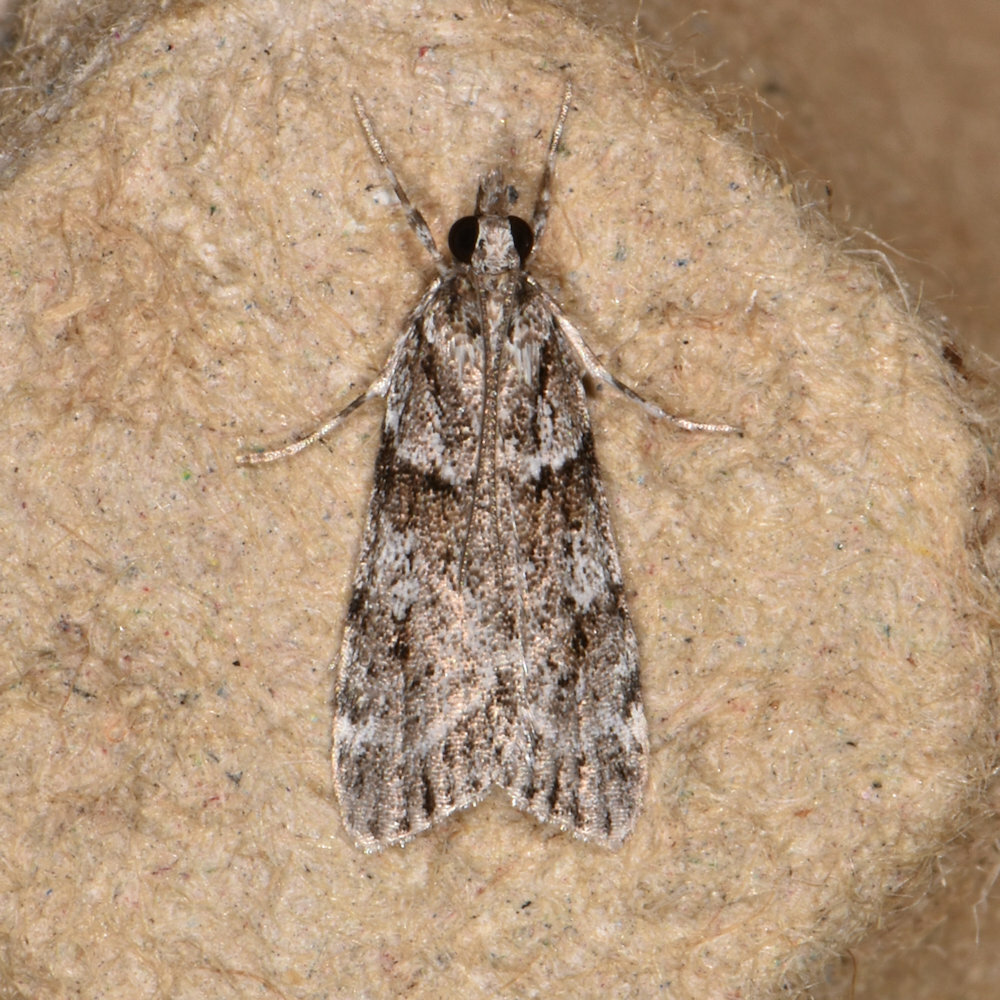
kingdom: Animalia
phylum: Arthropoda
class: Insecta
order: Lepidoptera
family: Crambidae
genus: Scoparia
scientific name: Scoparia biplagialis
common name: Double-striped scoparia moth
